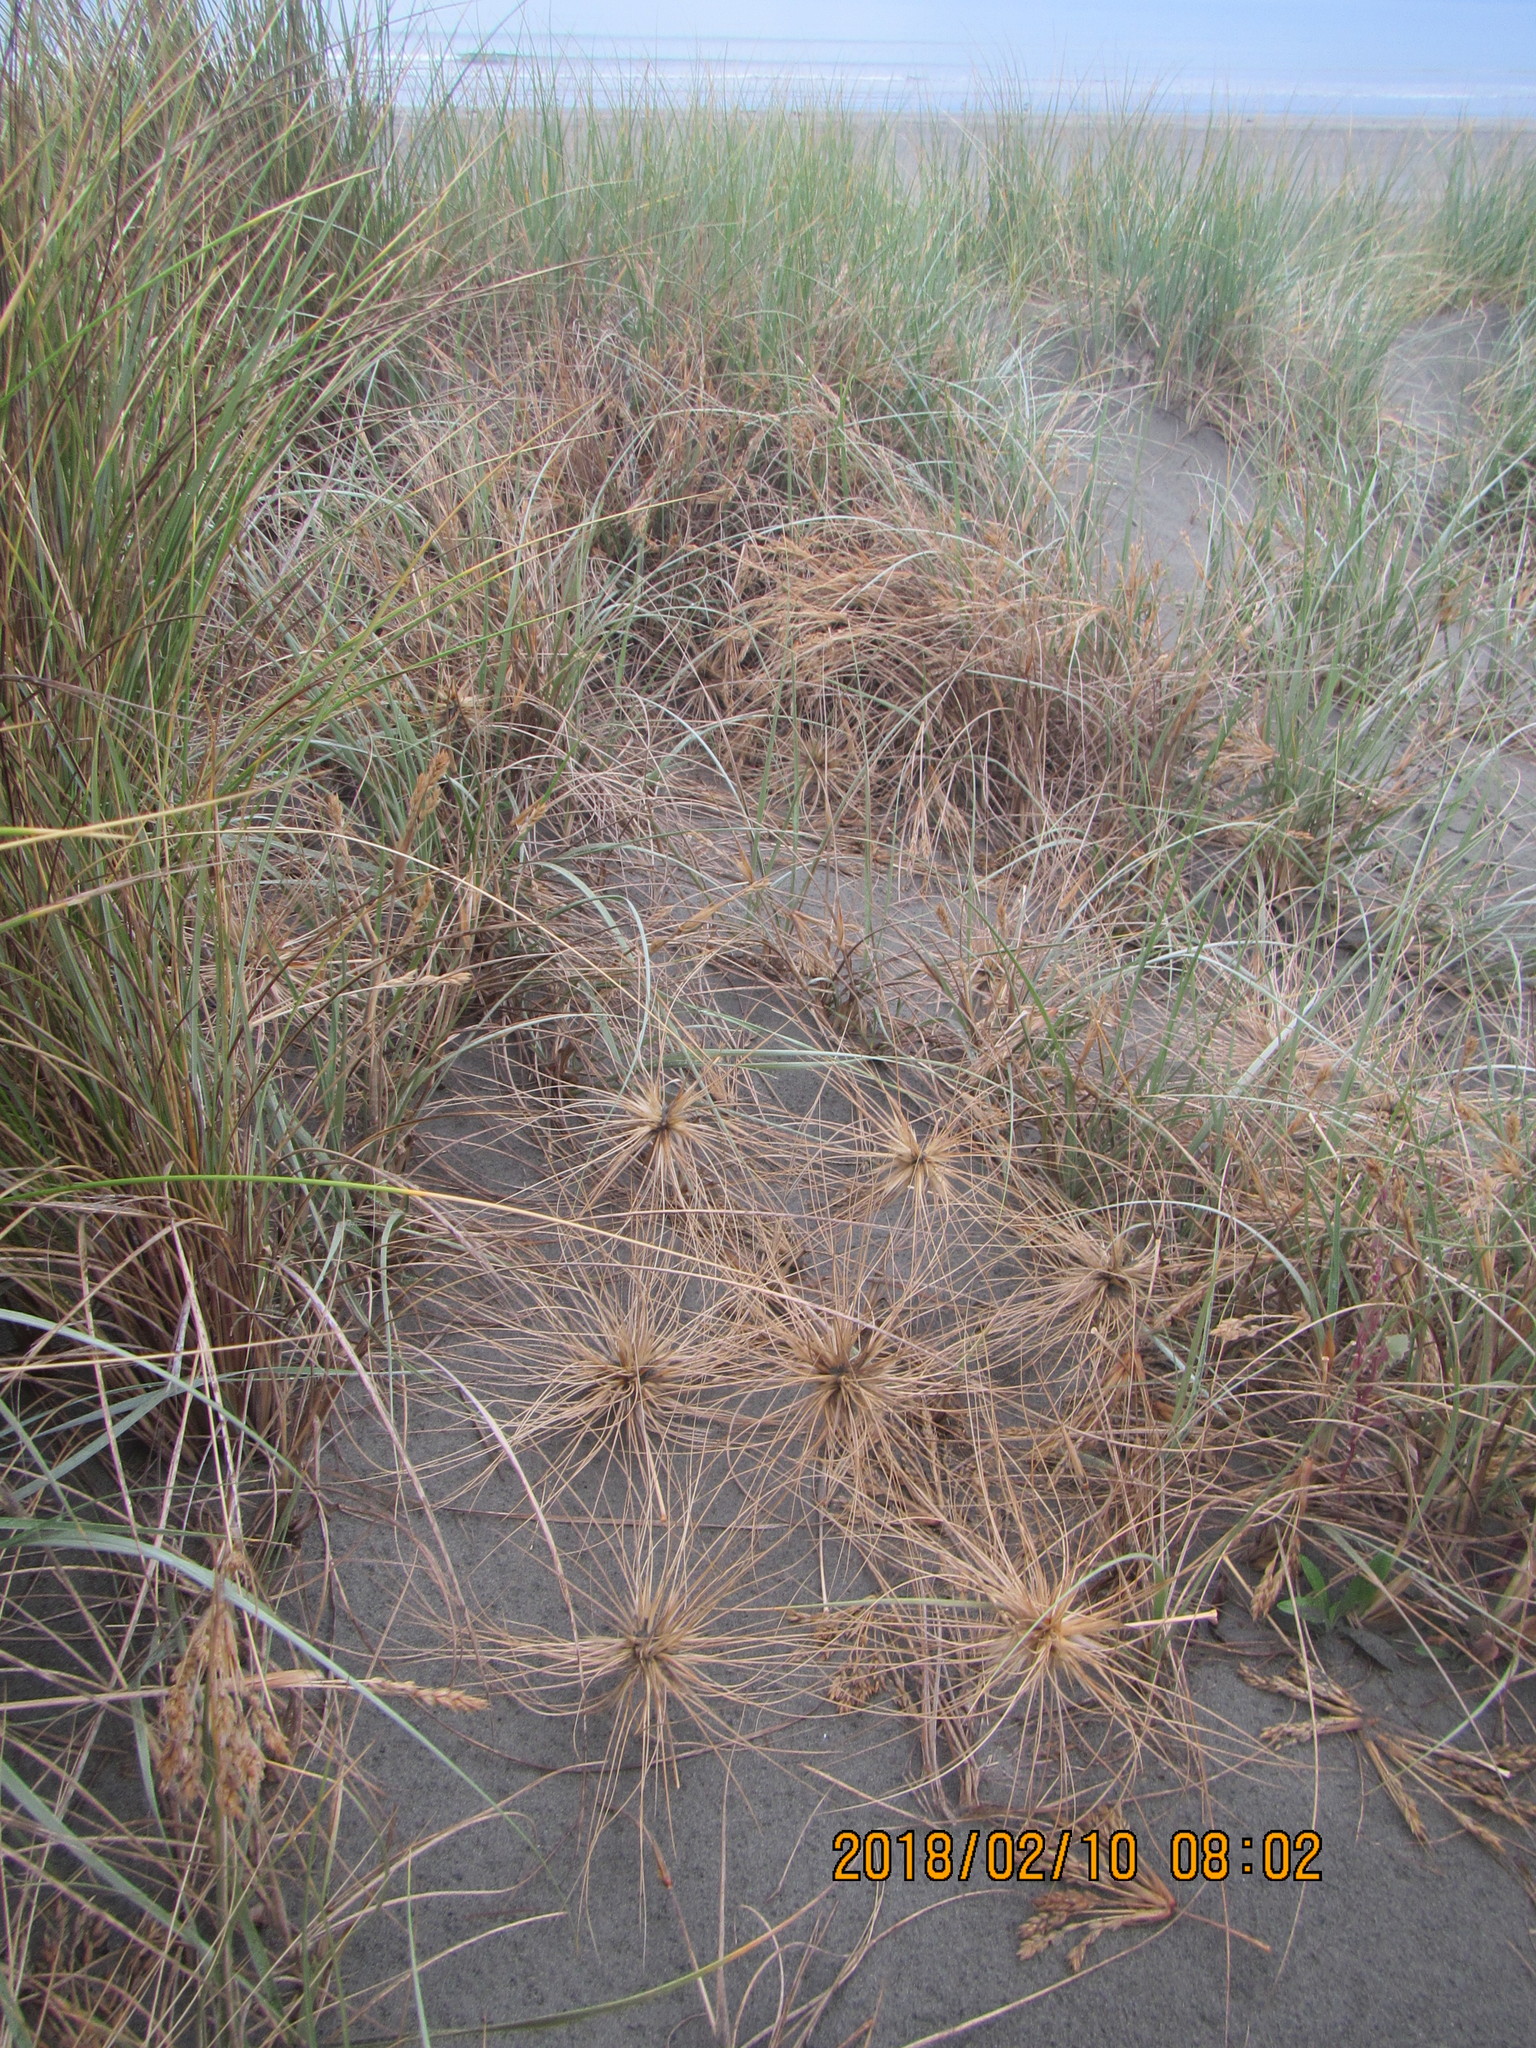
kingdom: Plantae
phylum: Tracheophyta
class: Liliopsida
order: Poales
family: Poaceae
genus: Spinifex
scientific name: Spinifex sericeus
